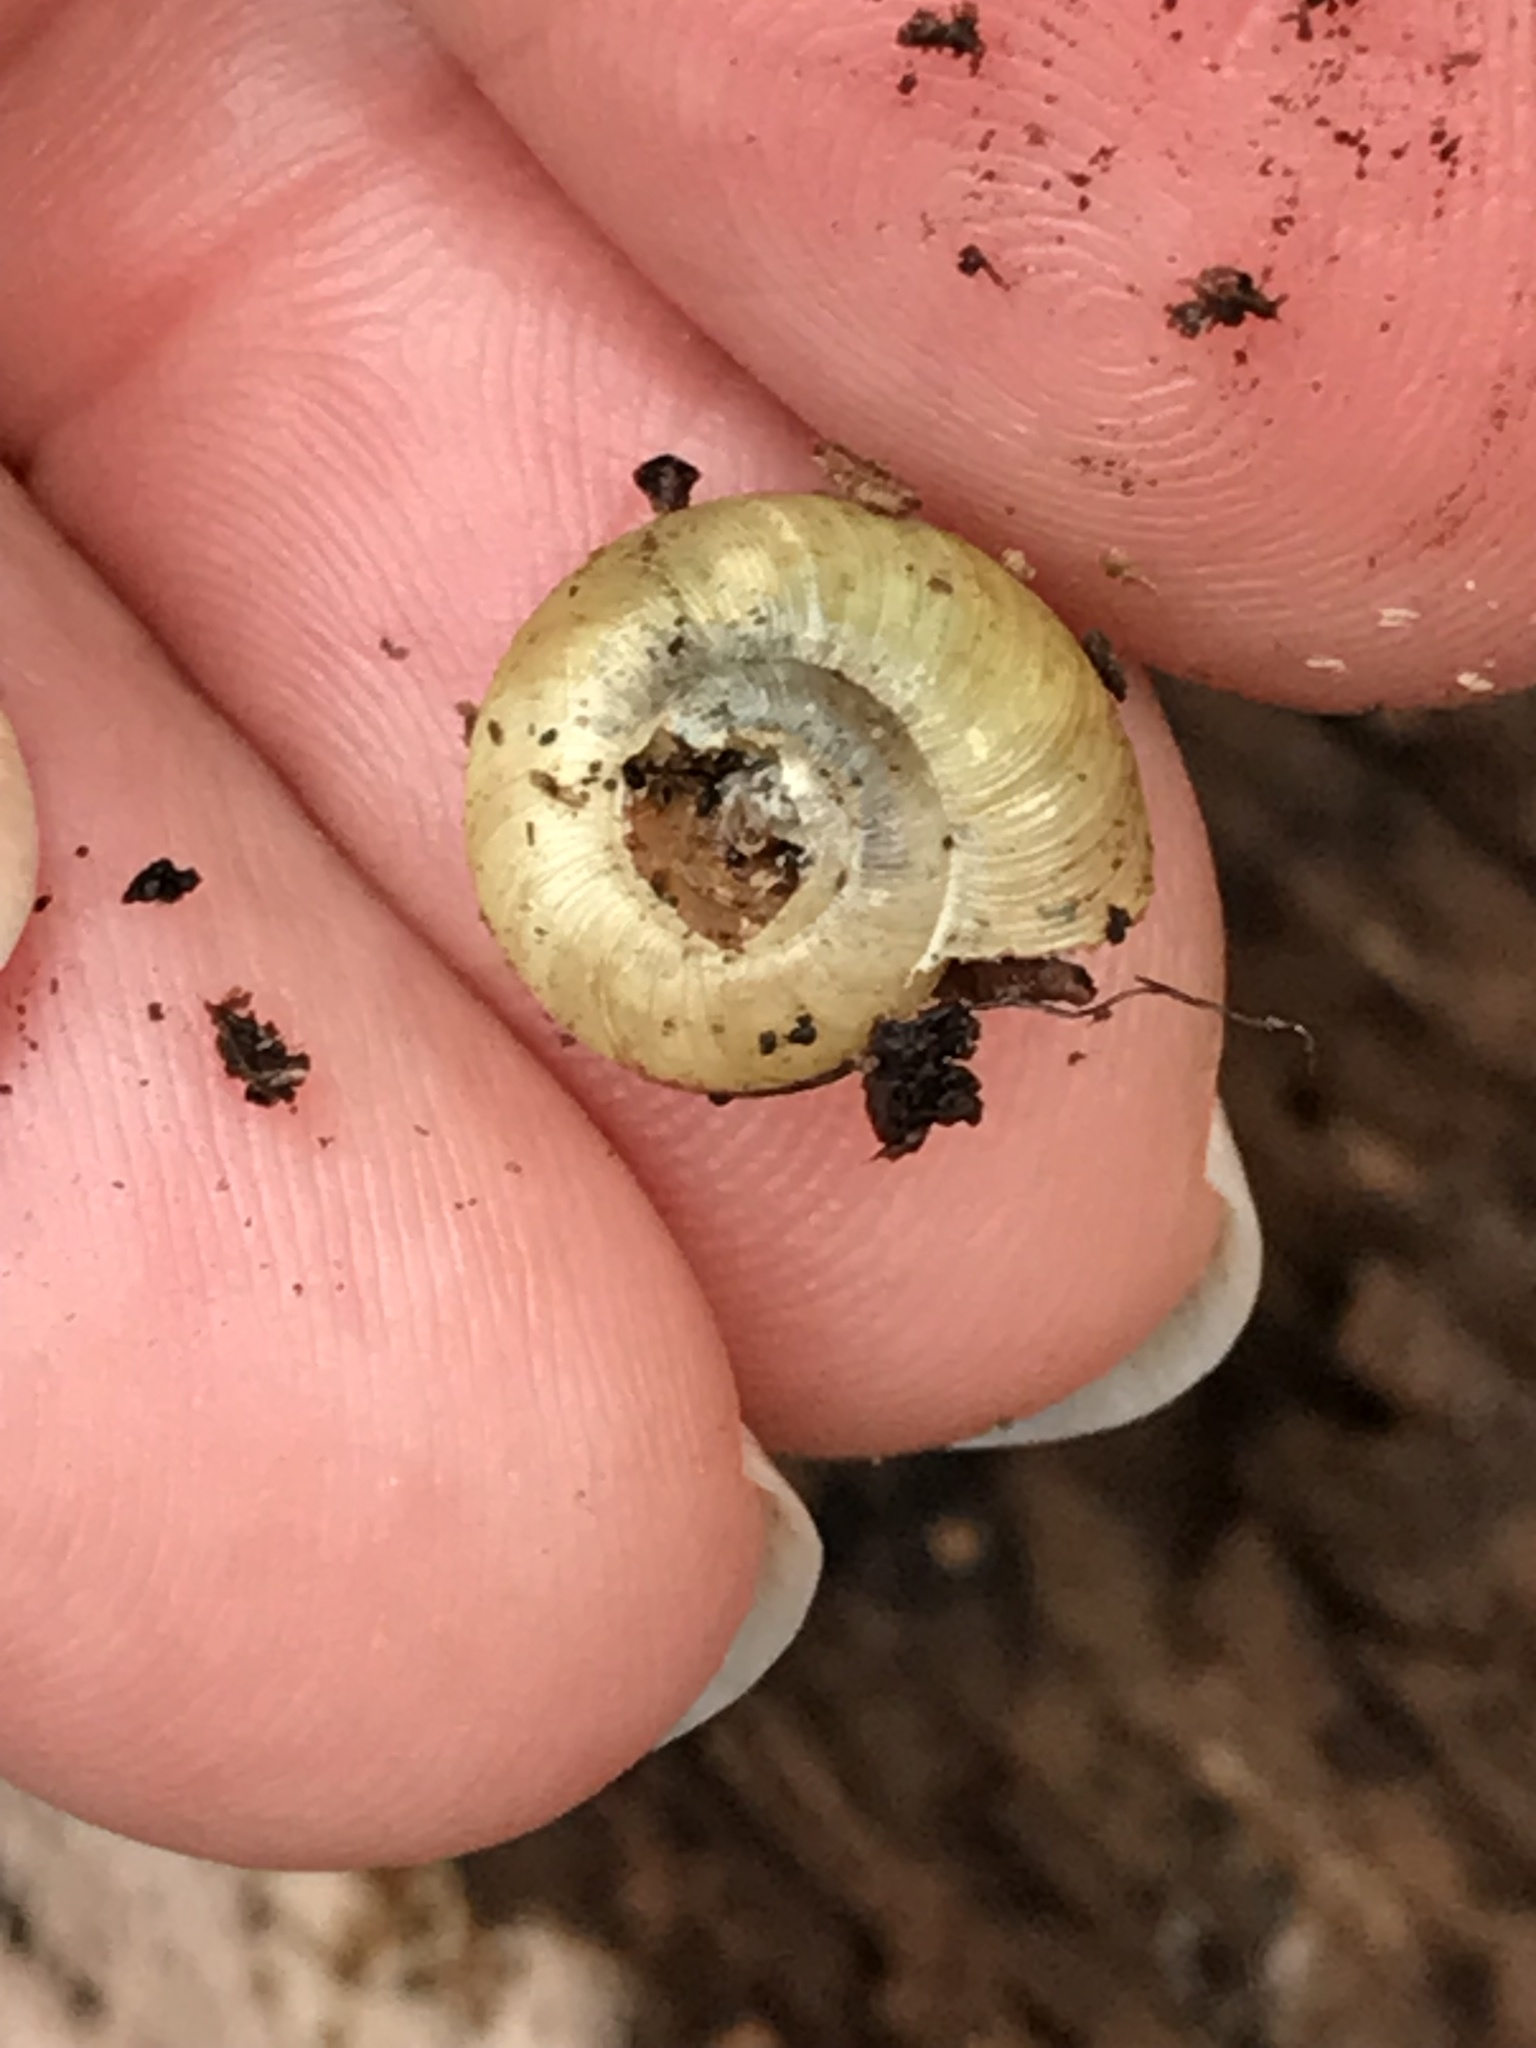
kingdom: Animalia
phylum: Mollusca
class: Gastropoda
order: Stylommatophora
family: Haplotrematidae
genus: Haplotrema
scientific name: Haplotrema minimum
